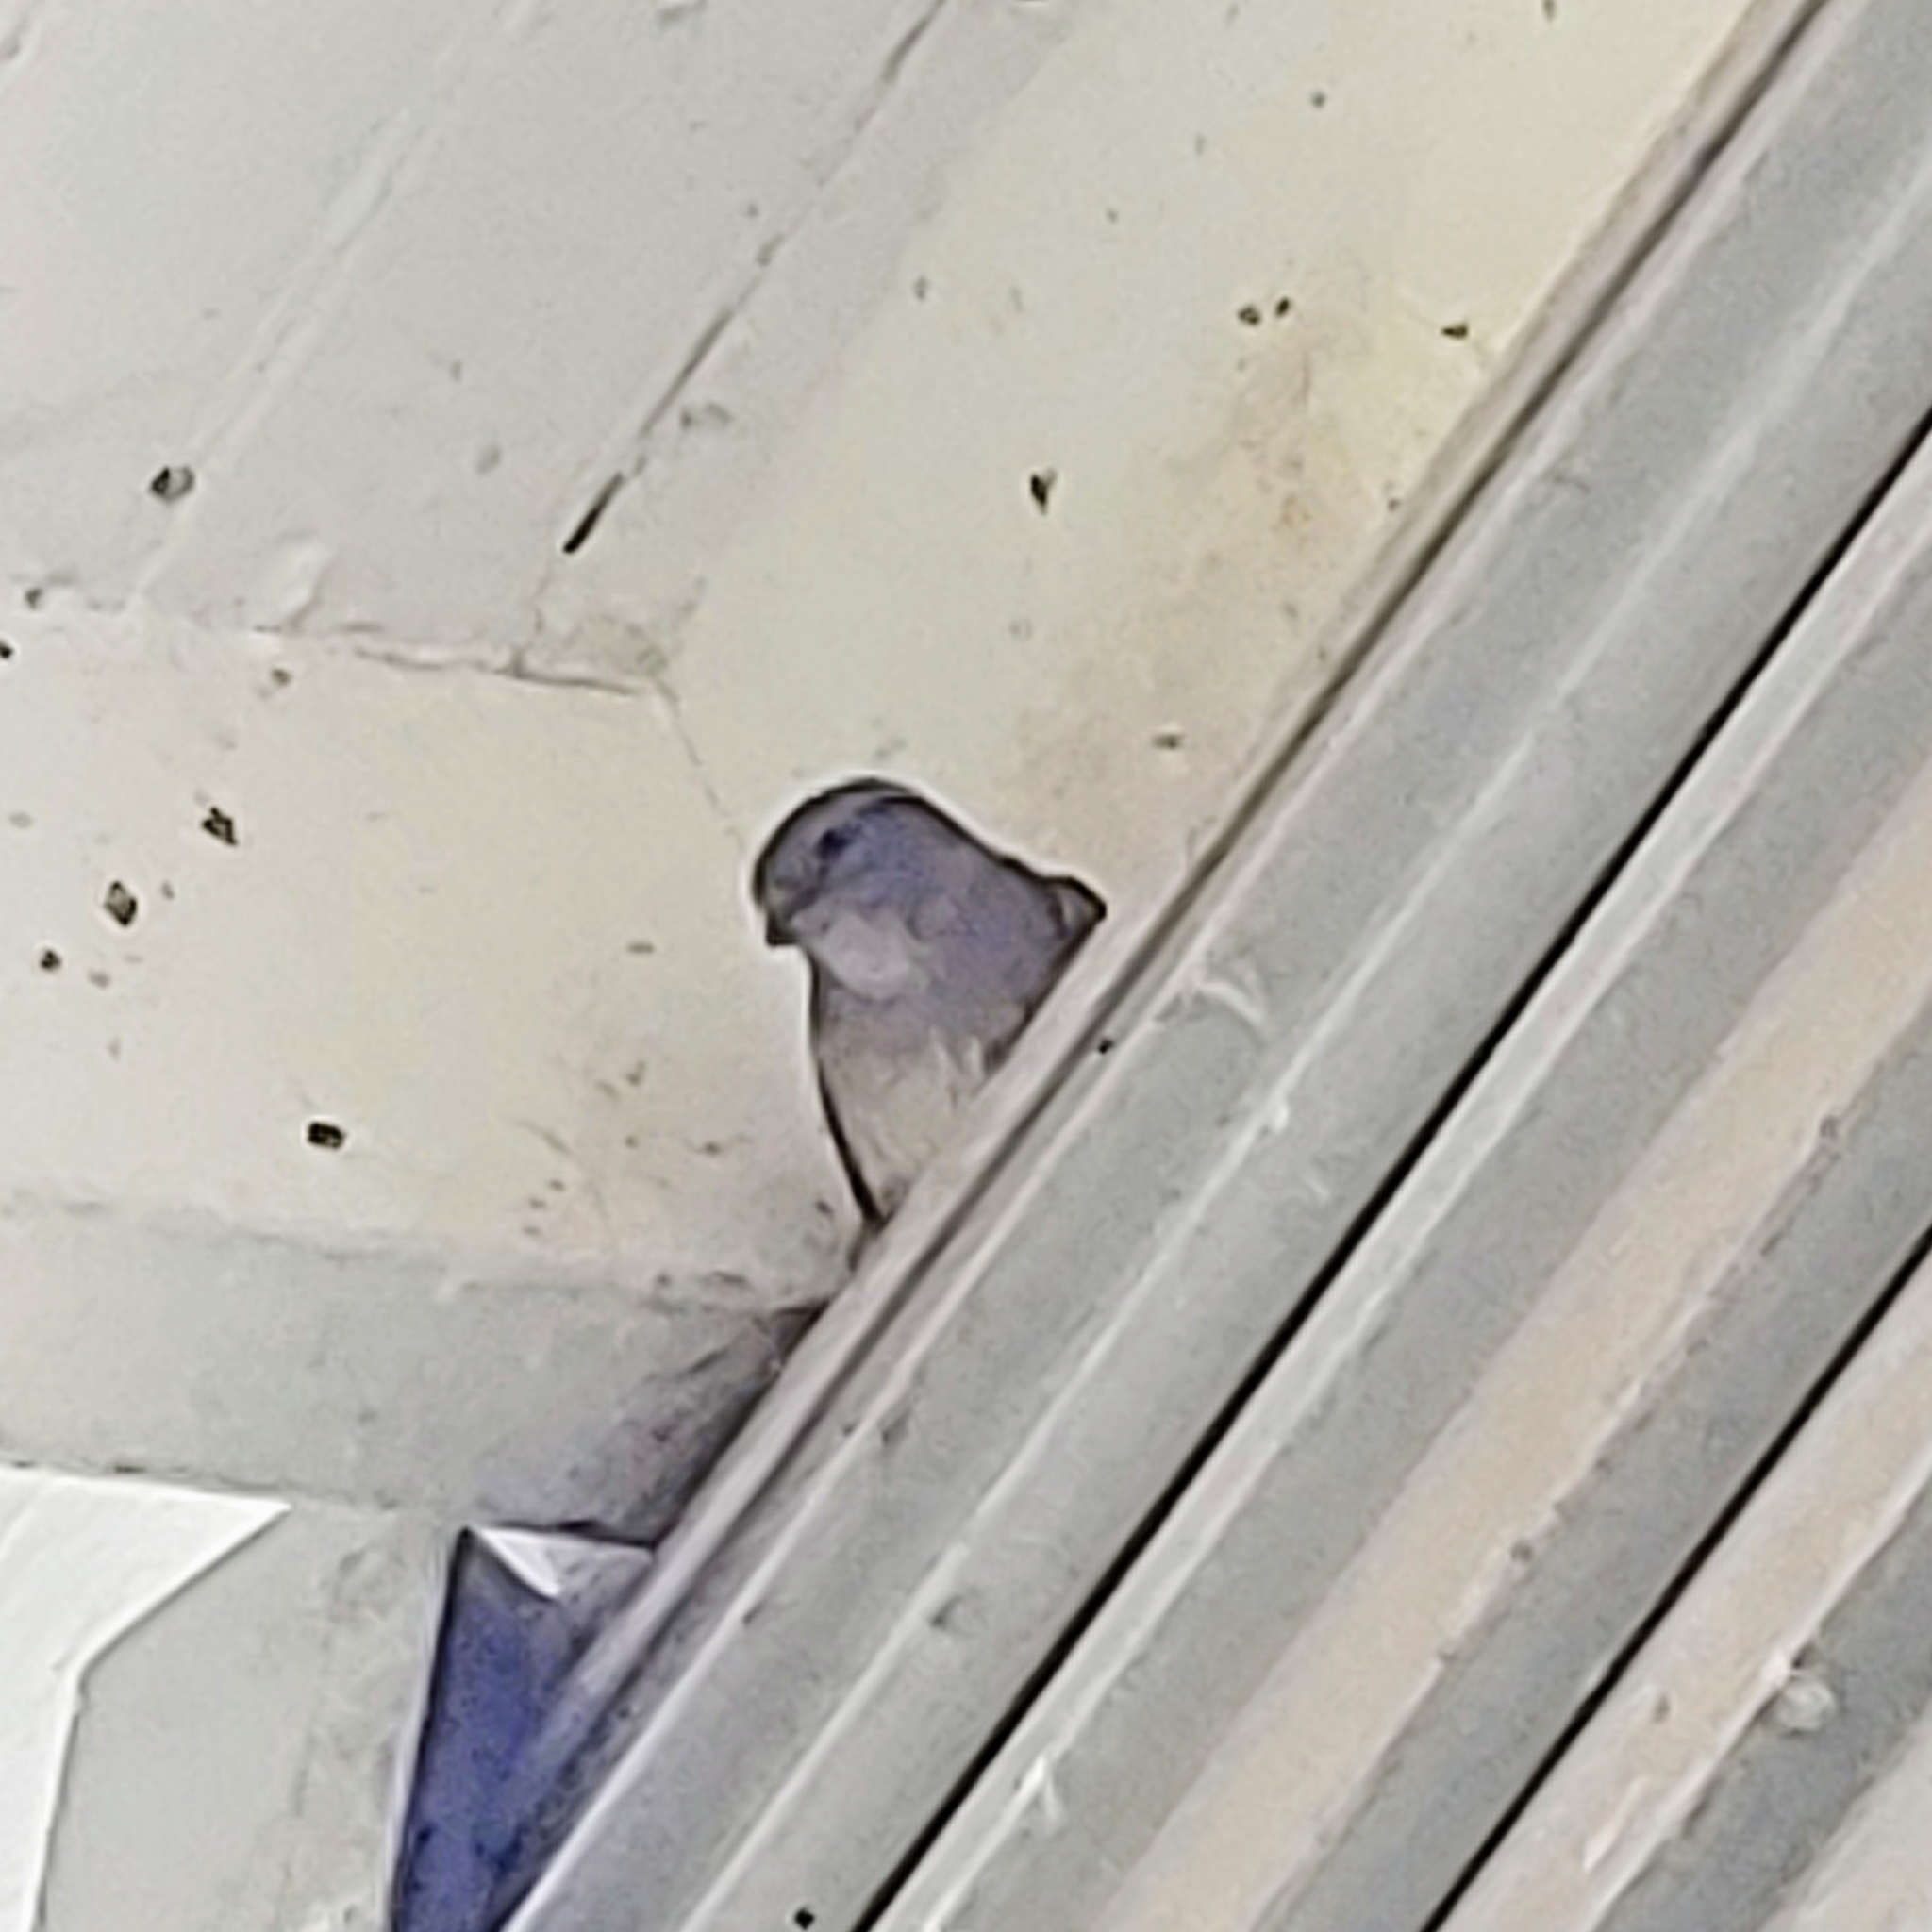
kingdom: Animalia
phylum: Chordata
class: Aves
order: Passeriformes
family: Passeridae
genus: Passer
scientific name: Passer domesticus
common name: House sparrow
